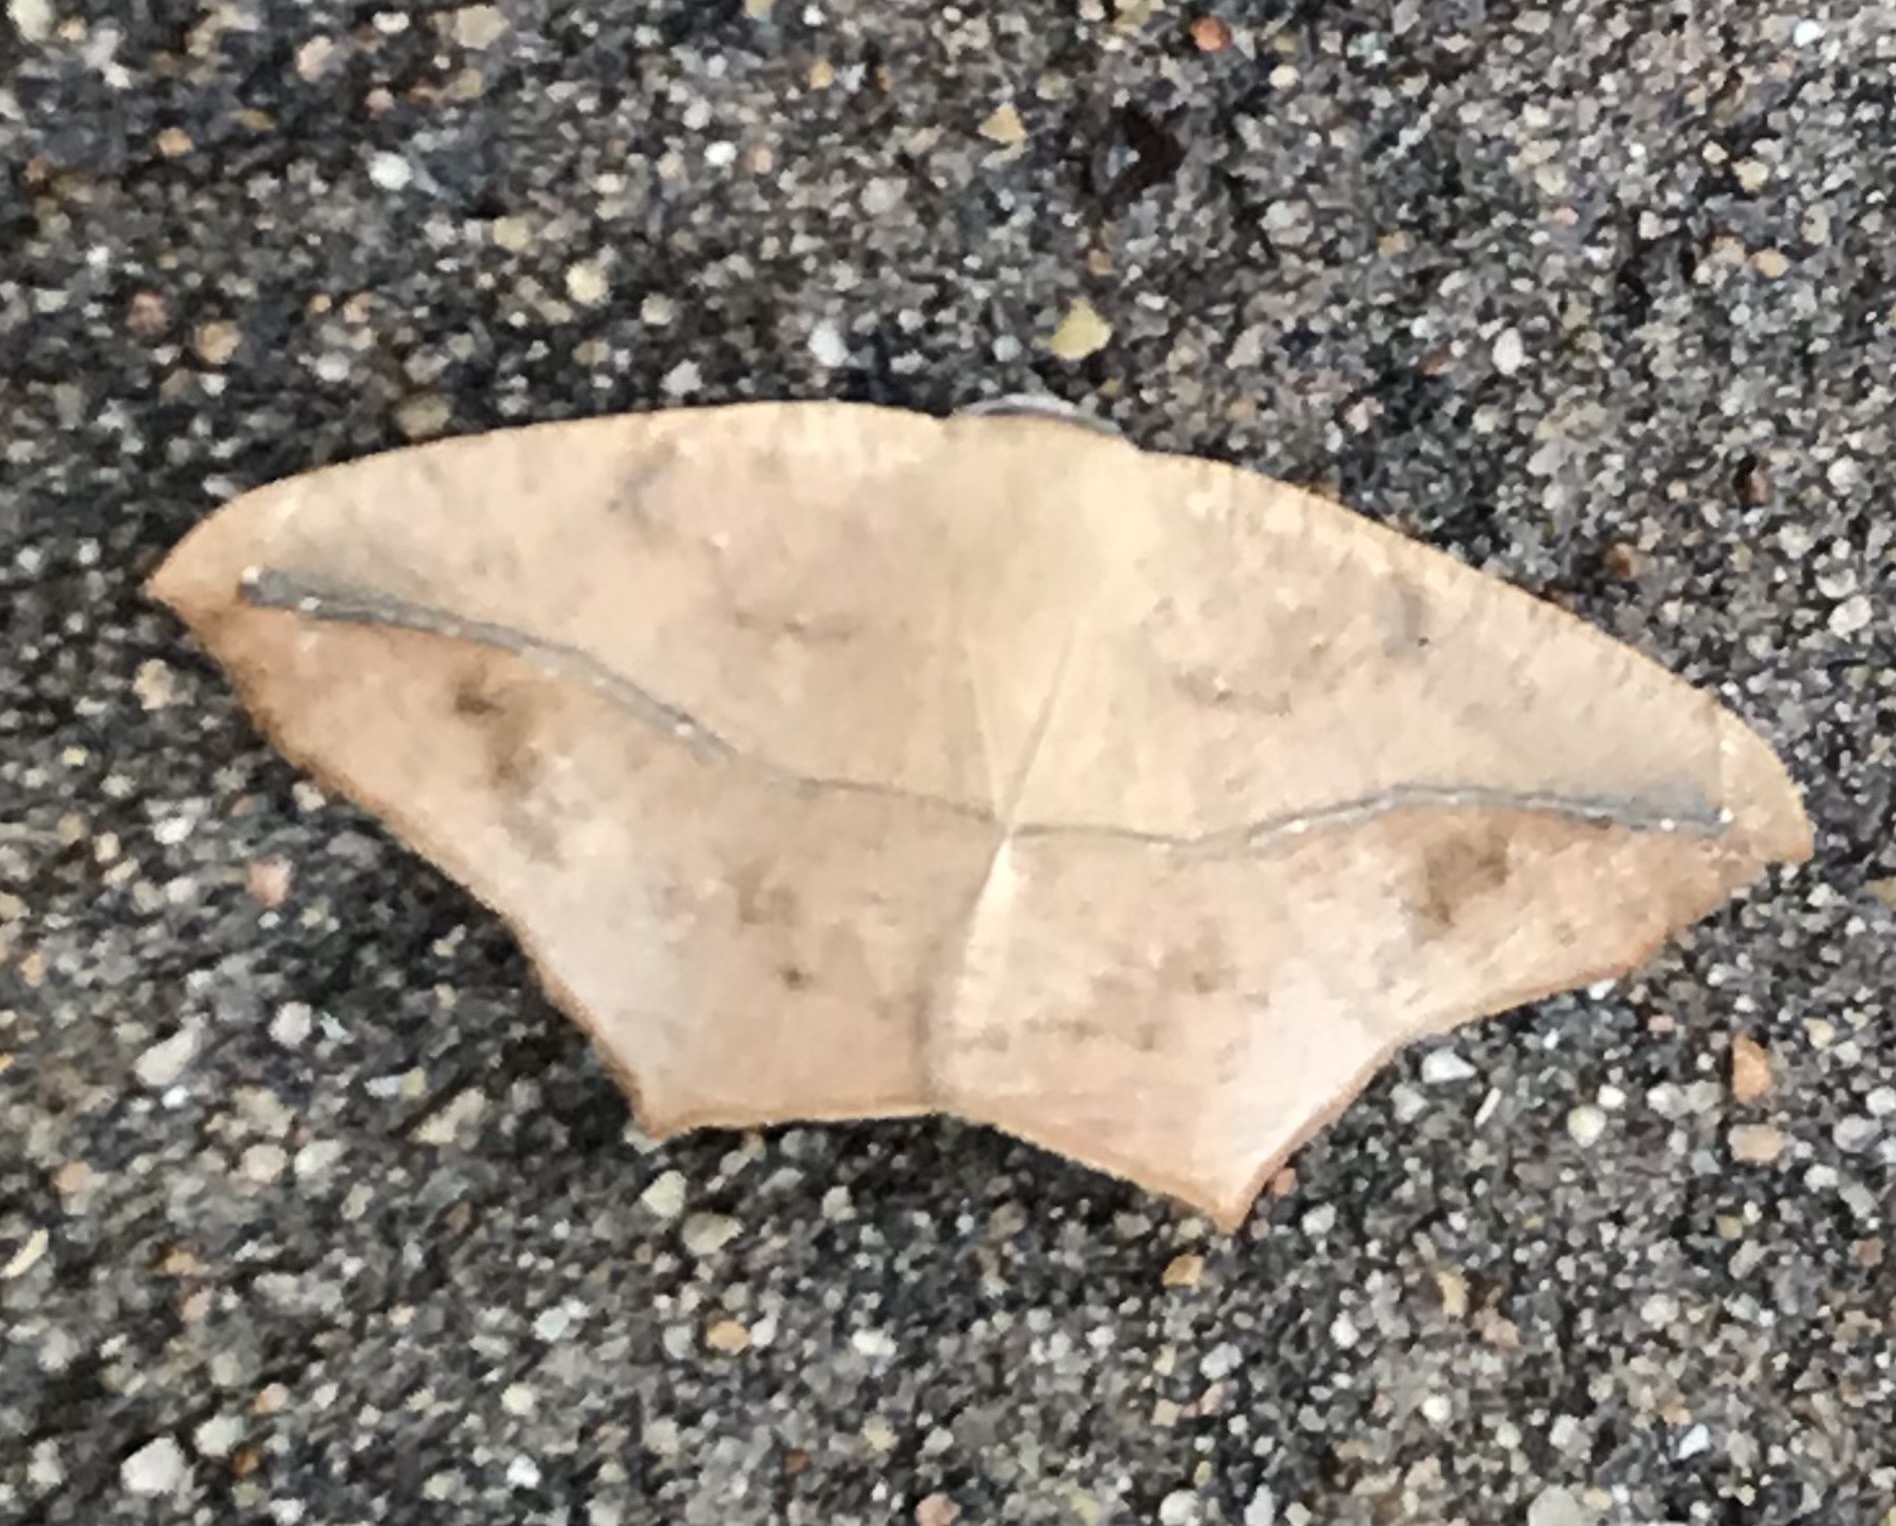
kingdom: Animalia
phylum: Arthropoda
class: Insecta
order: Lepidoptera
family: Geometridae
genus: Prochoerodes
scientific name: Prochoerodes lineola
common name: Large maple spanworm
